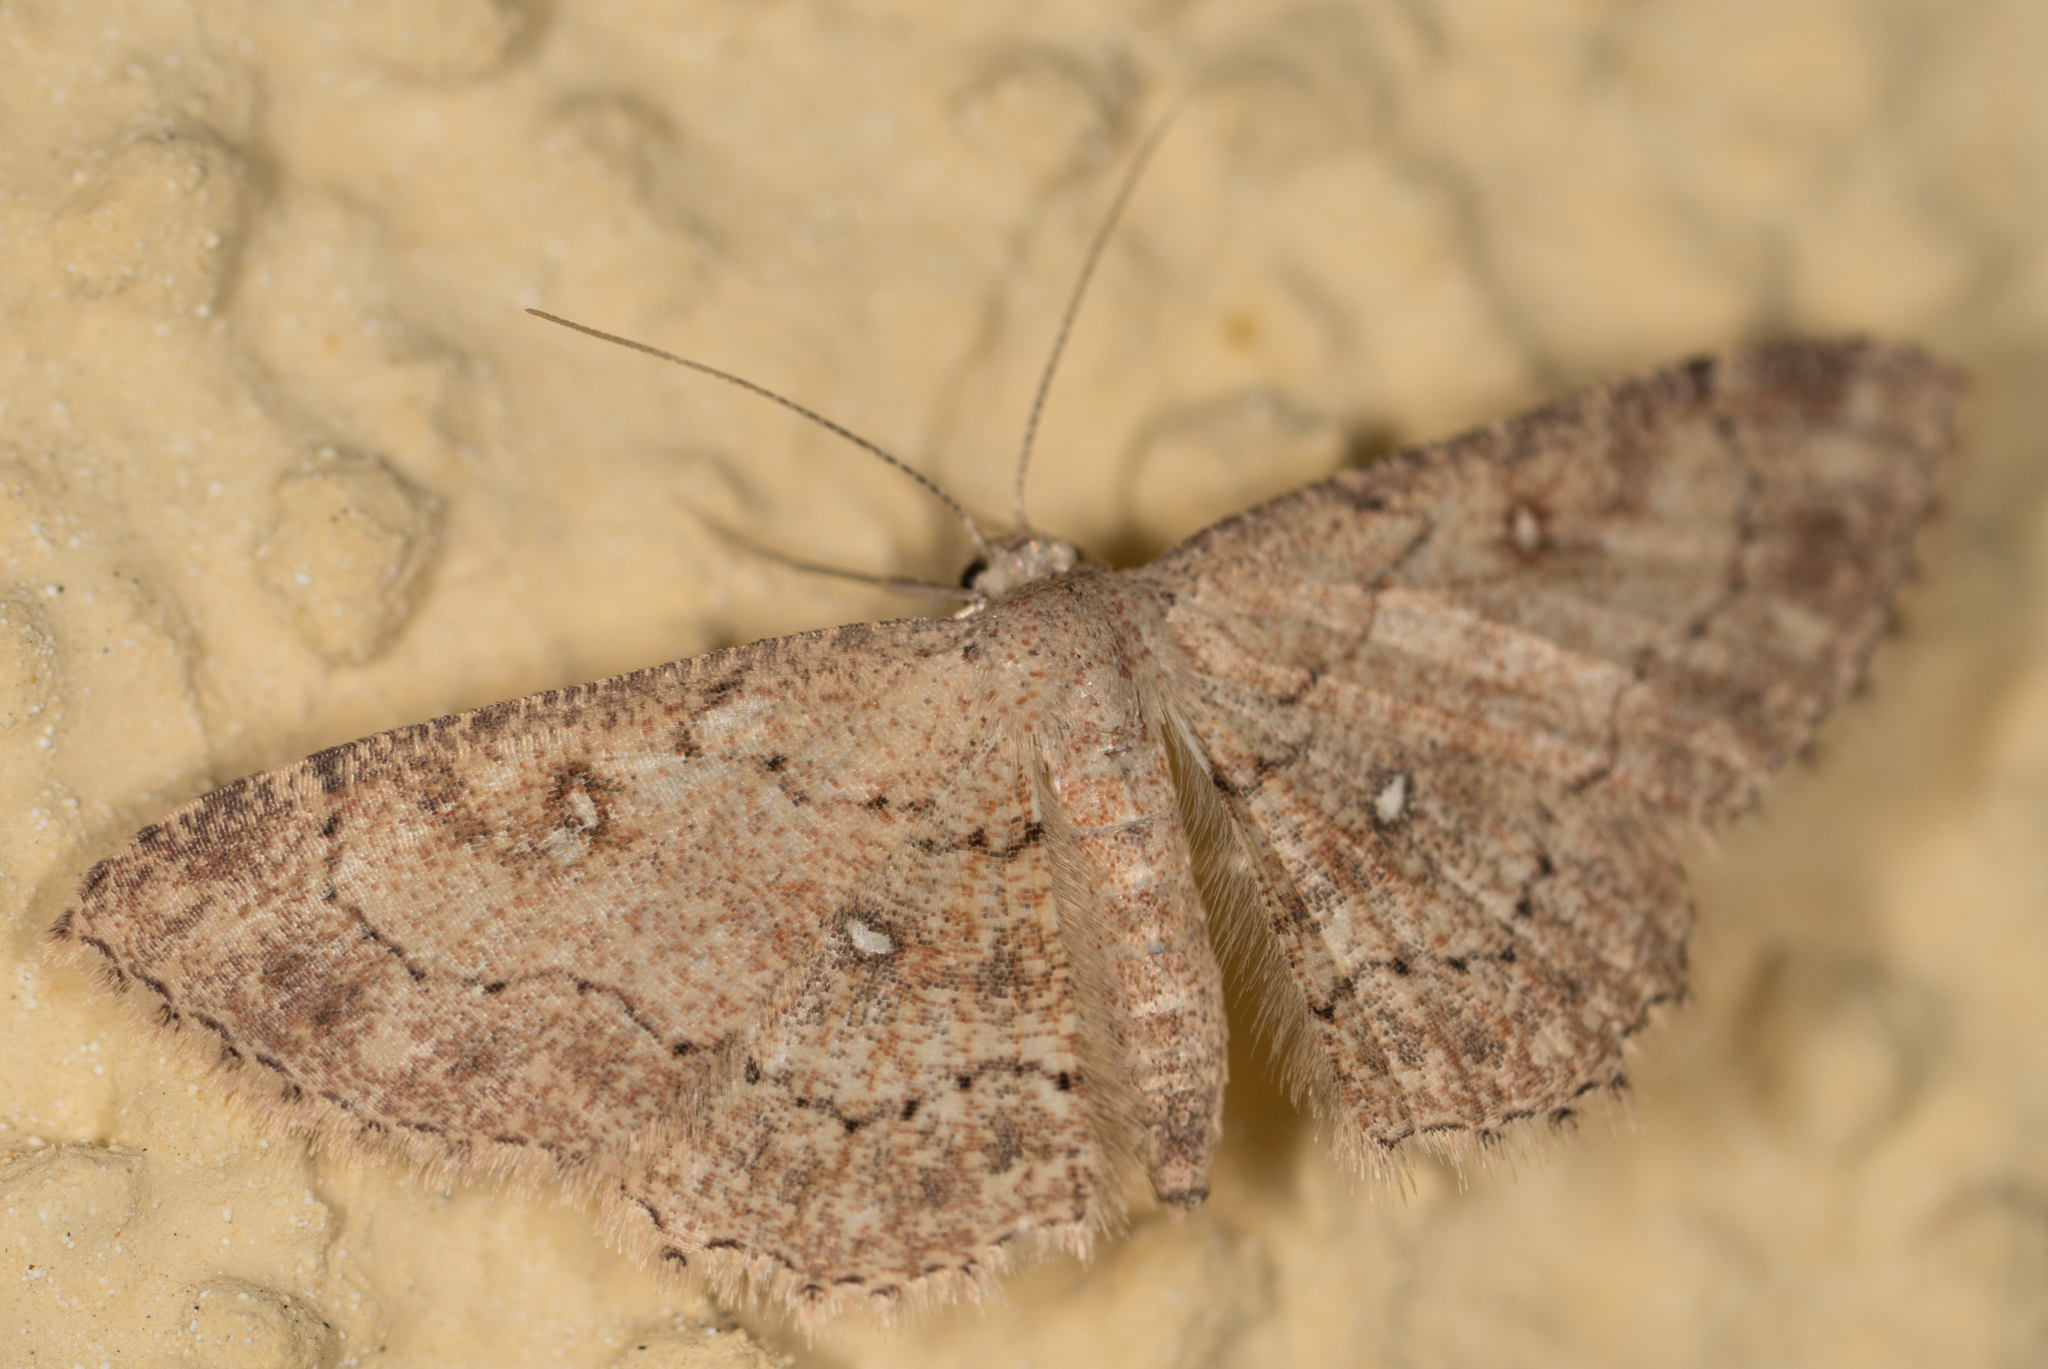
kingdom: Animalia
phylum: Arthropoda
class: Insecta
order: Lepidoptera
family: Geometridae
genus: Cyclophora
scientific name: Cyclophora nanaria
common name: Cankerworm
